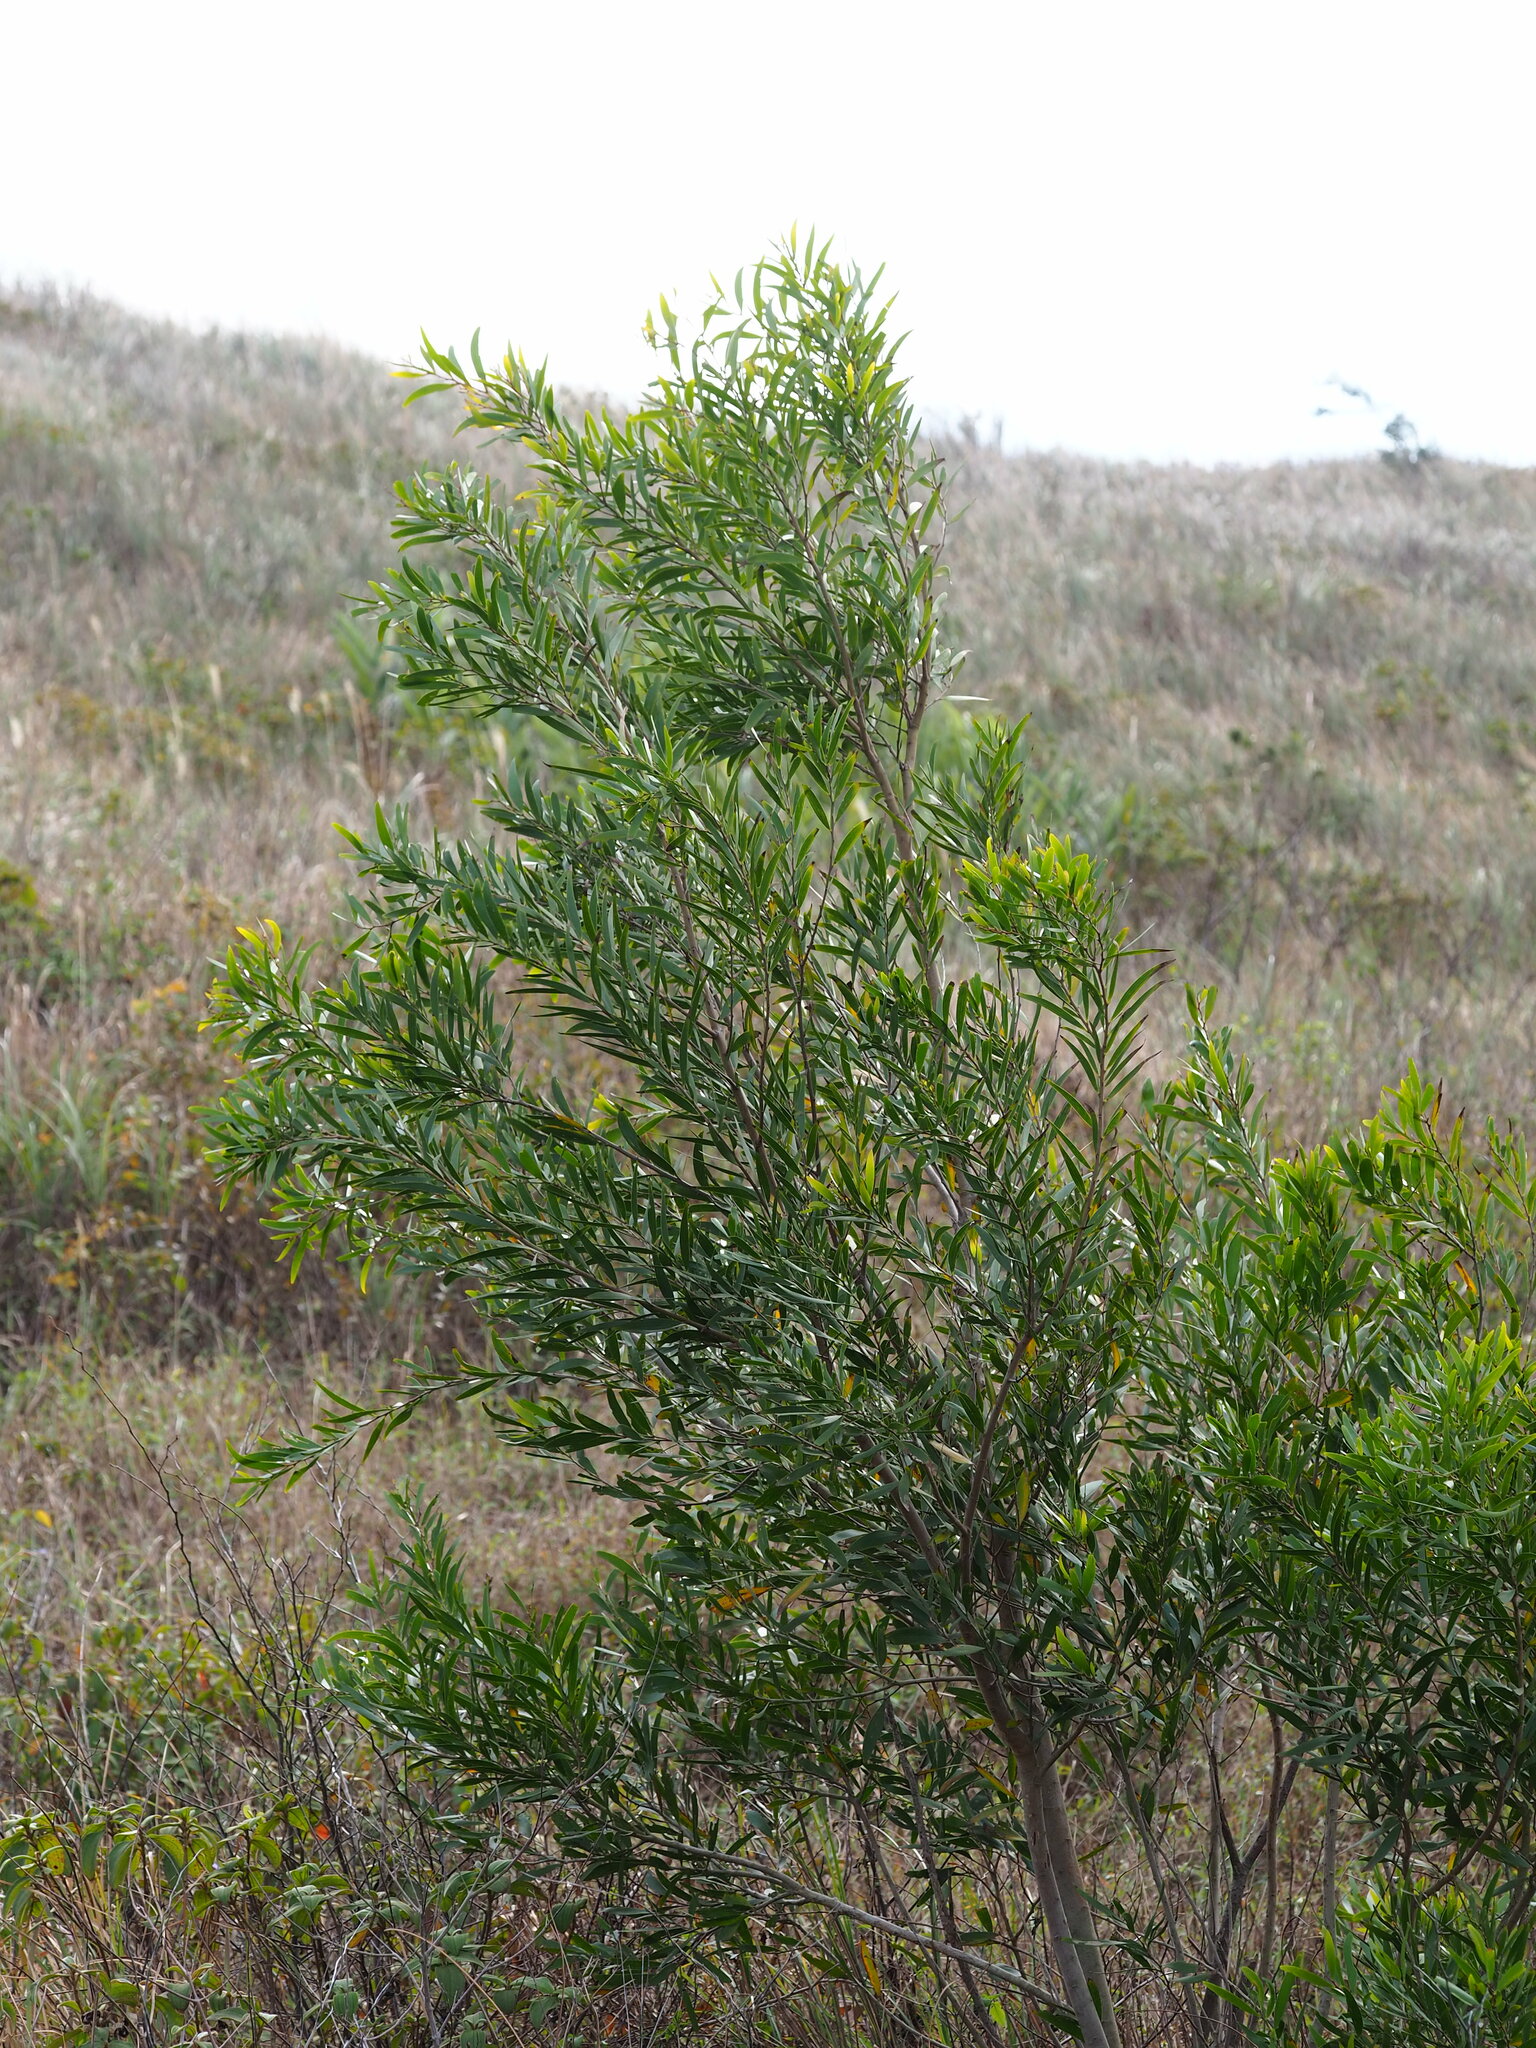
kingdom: Plantae
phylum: Tracheophyta
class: Magnoliopsida
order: Fabales
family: Fabaceae
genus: Acacia
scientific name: Acacia confusa
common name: Formosan koa
